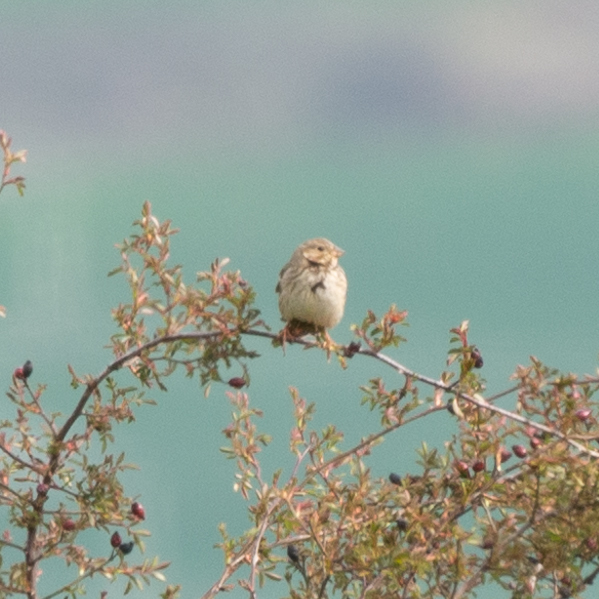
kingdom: Animalia
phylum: Chordata
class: Aves
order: Passeriformes
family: Emberizidae
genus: Emberiza
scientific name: Emberiza calandra
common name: Corn bunting
